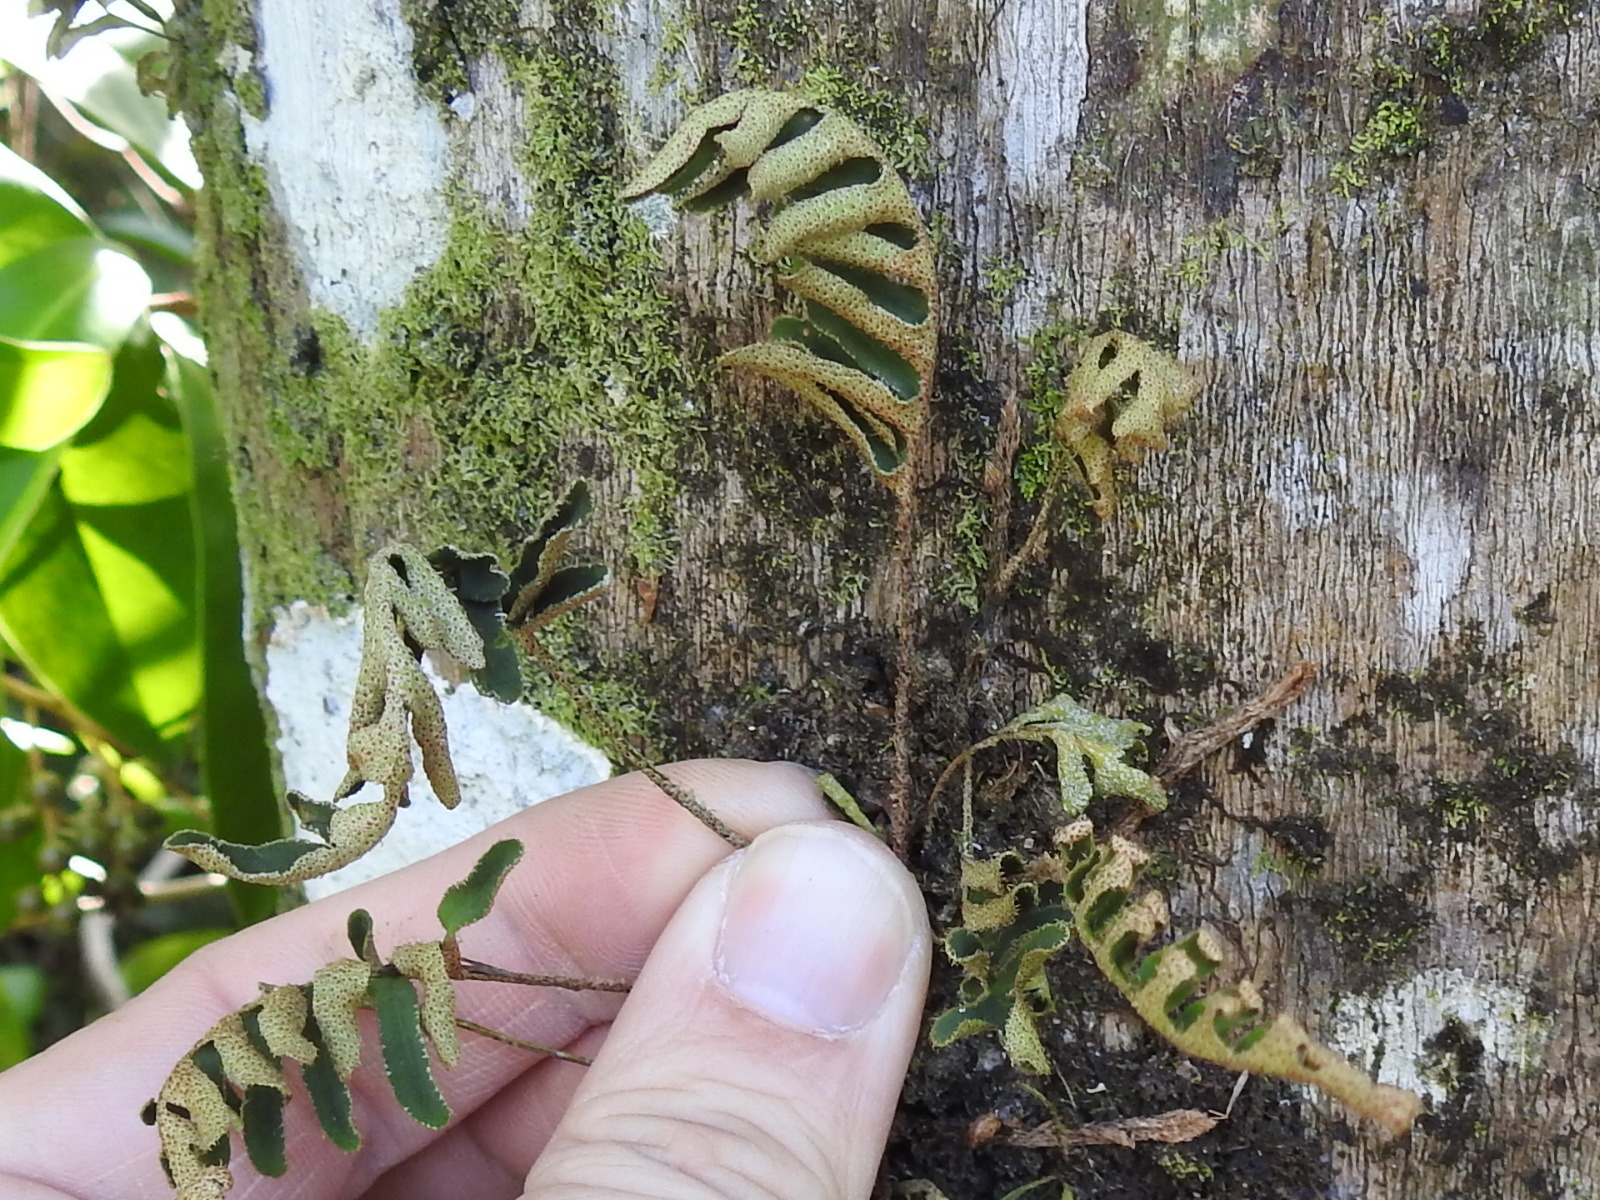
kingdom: Plantae
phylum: Tracheophyta
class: Polypodiopsida
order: Polypodiales
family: Polypodiaceae
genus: Pleopeltis
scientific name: Pleopeltis michauxiana
